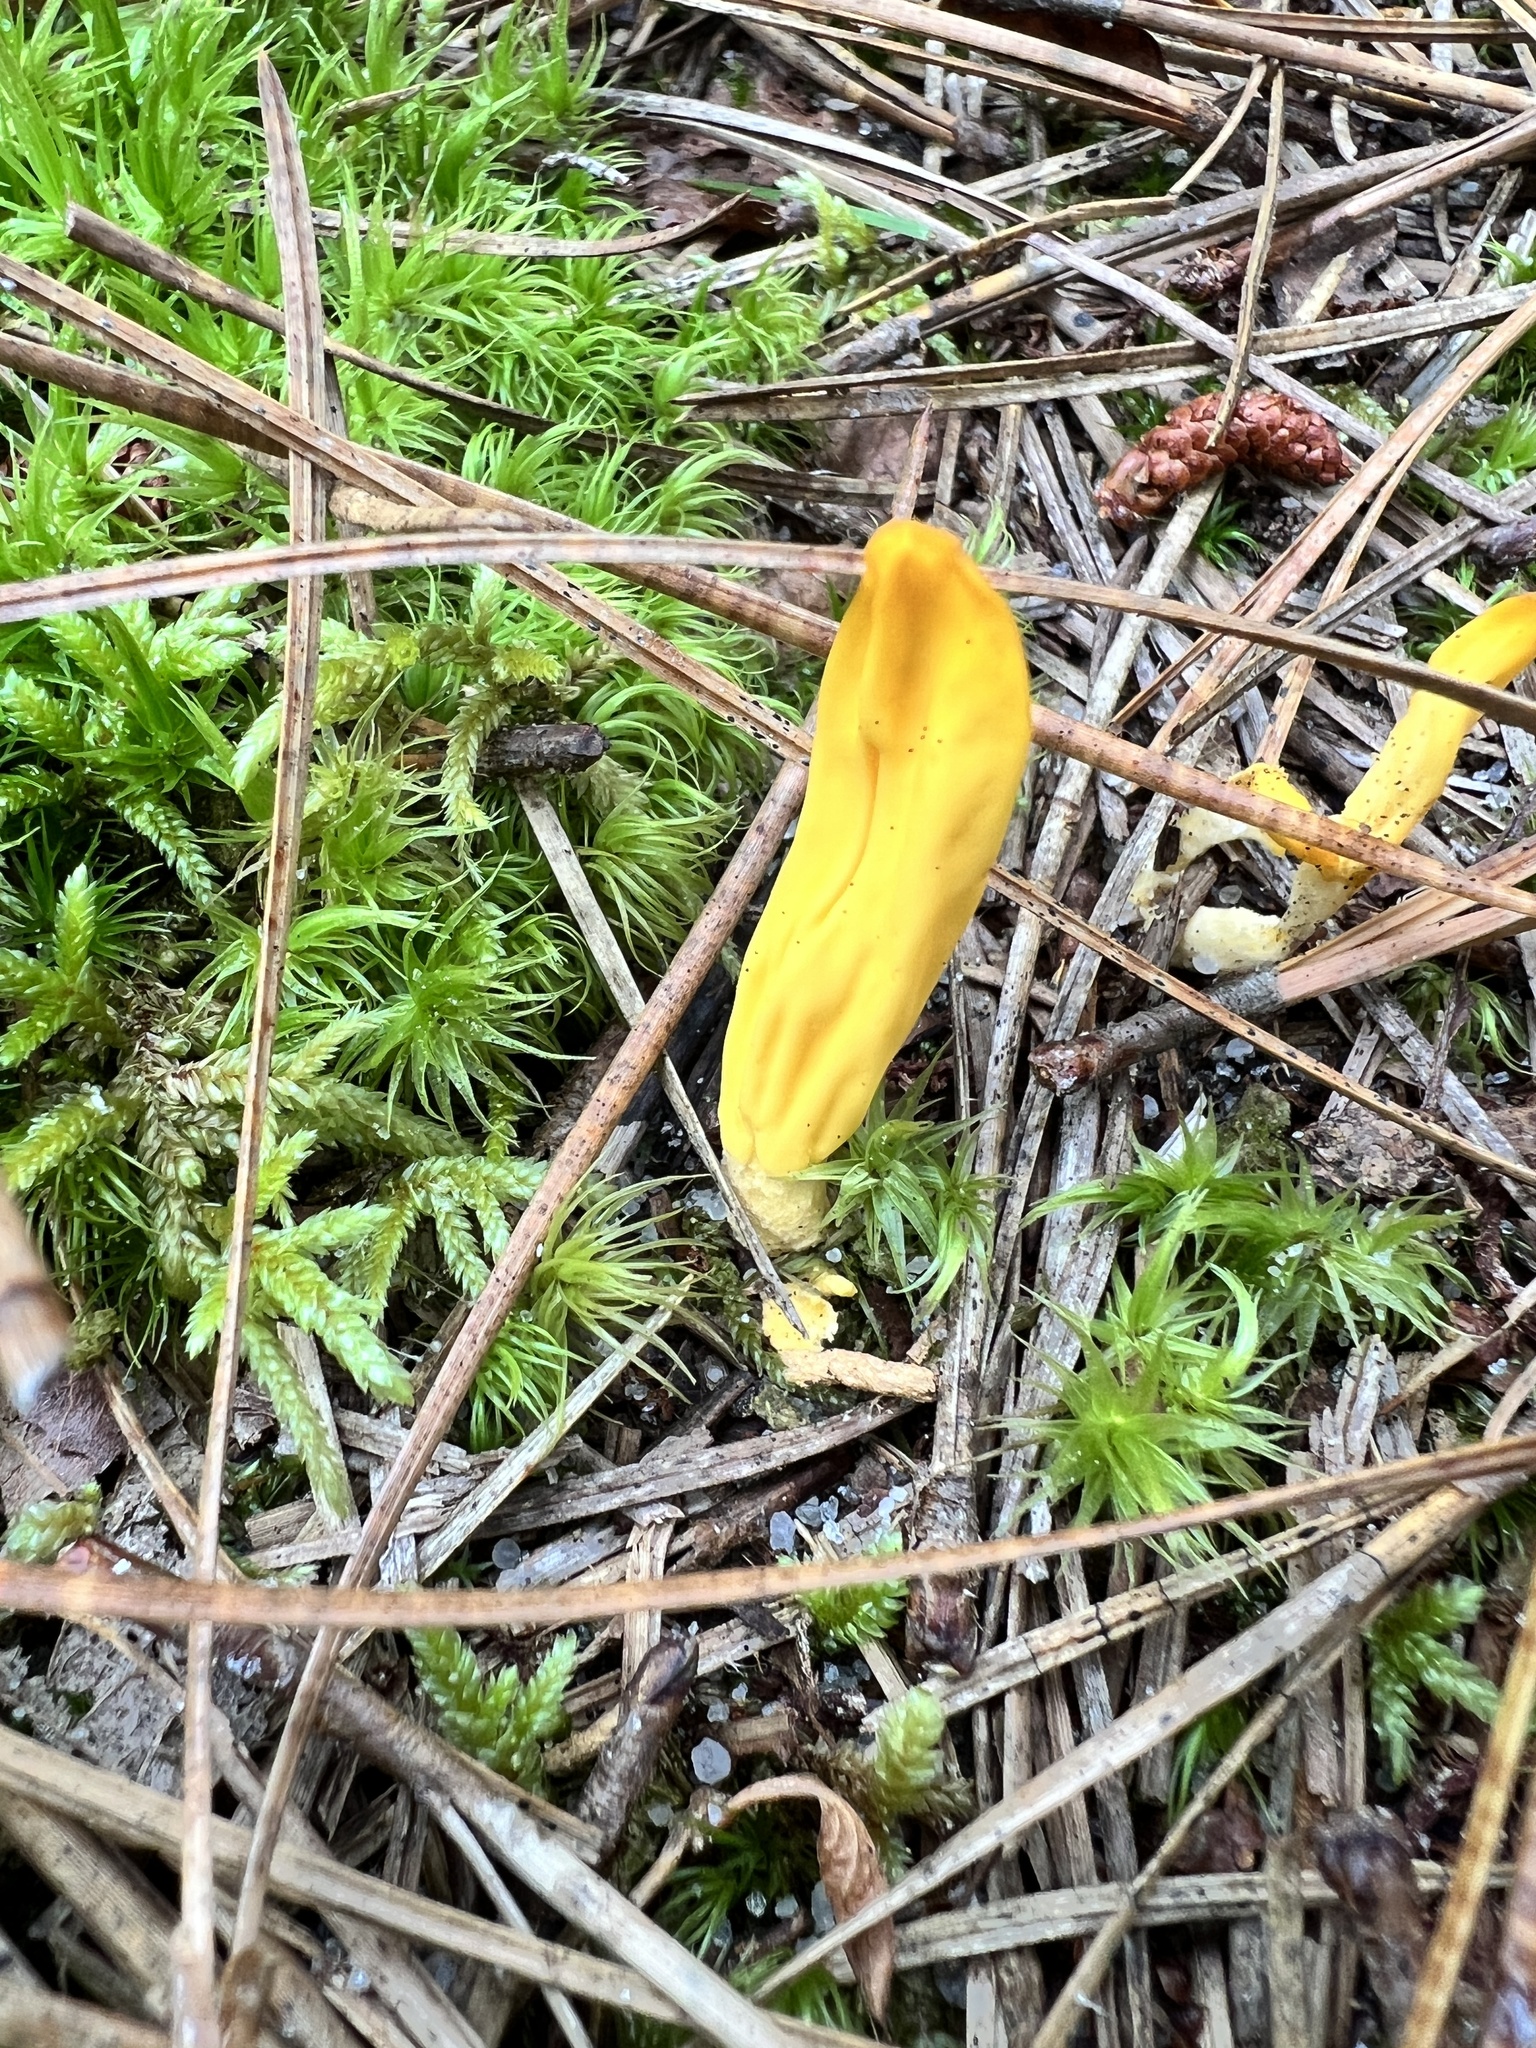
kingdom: Fungi
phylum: Ascomycota
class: Neolectomycetes
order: Neolectales
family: Neolectaceae
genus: Neolecta
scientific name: Neolecta irregularis
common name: Irregular earth tongue
